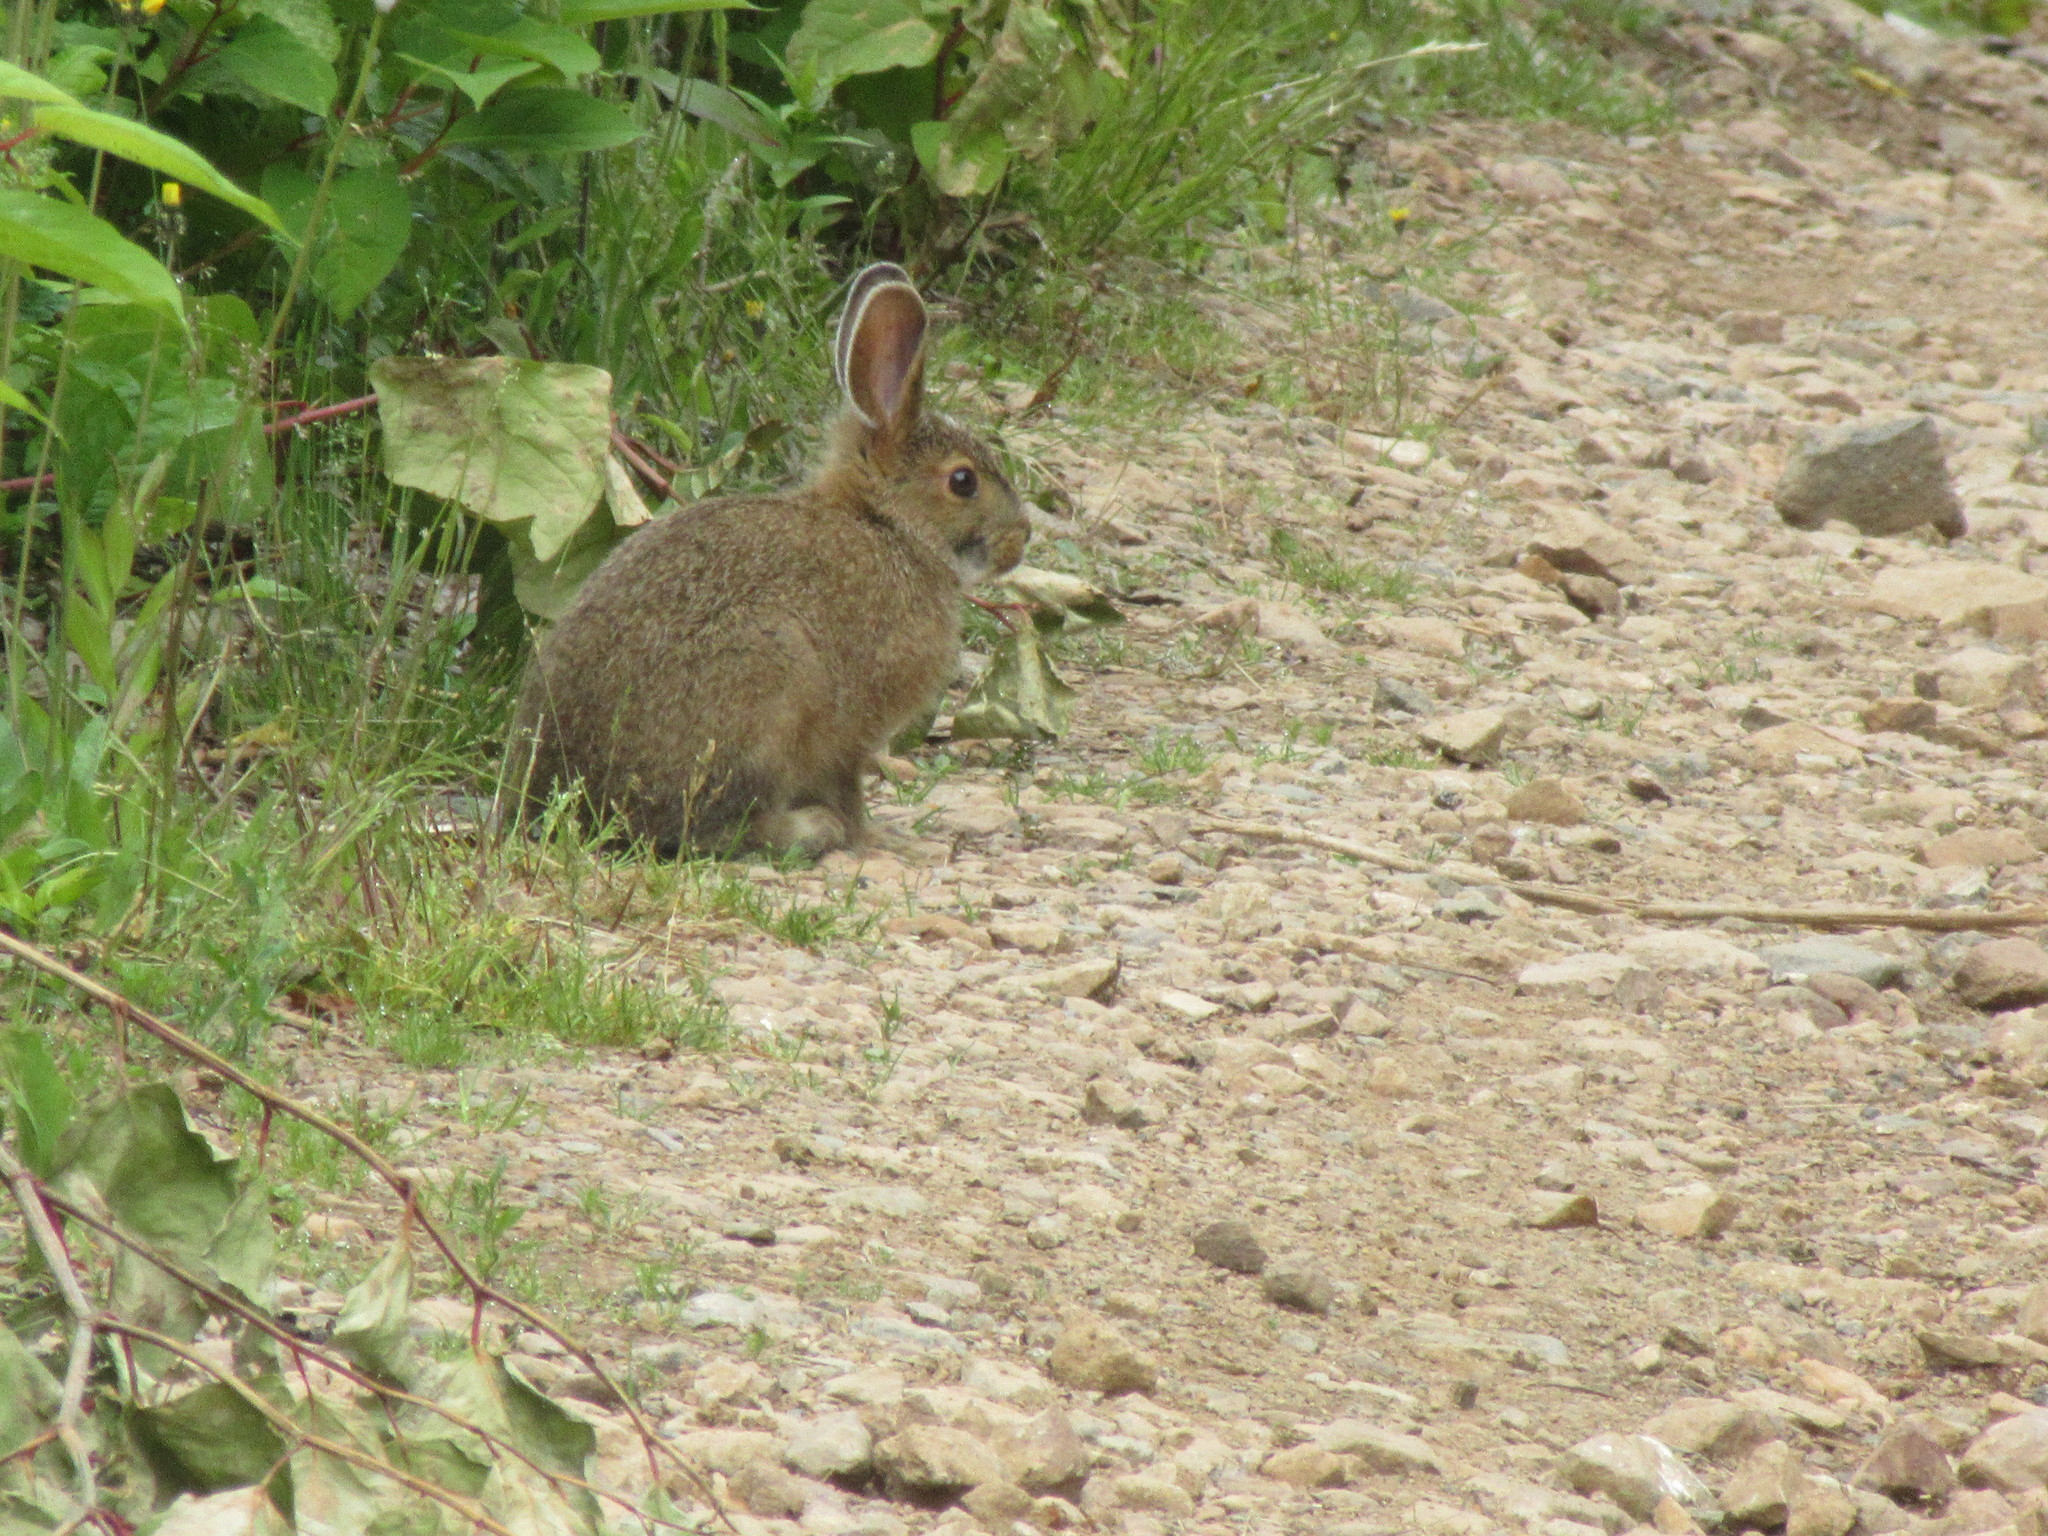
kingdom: Animalia
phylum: Chordata
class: Mammalia
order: Lagomorpha
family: Leporidae
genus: Lepus
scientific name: Lepus americanus
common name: Snowshoe hare
